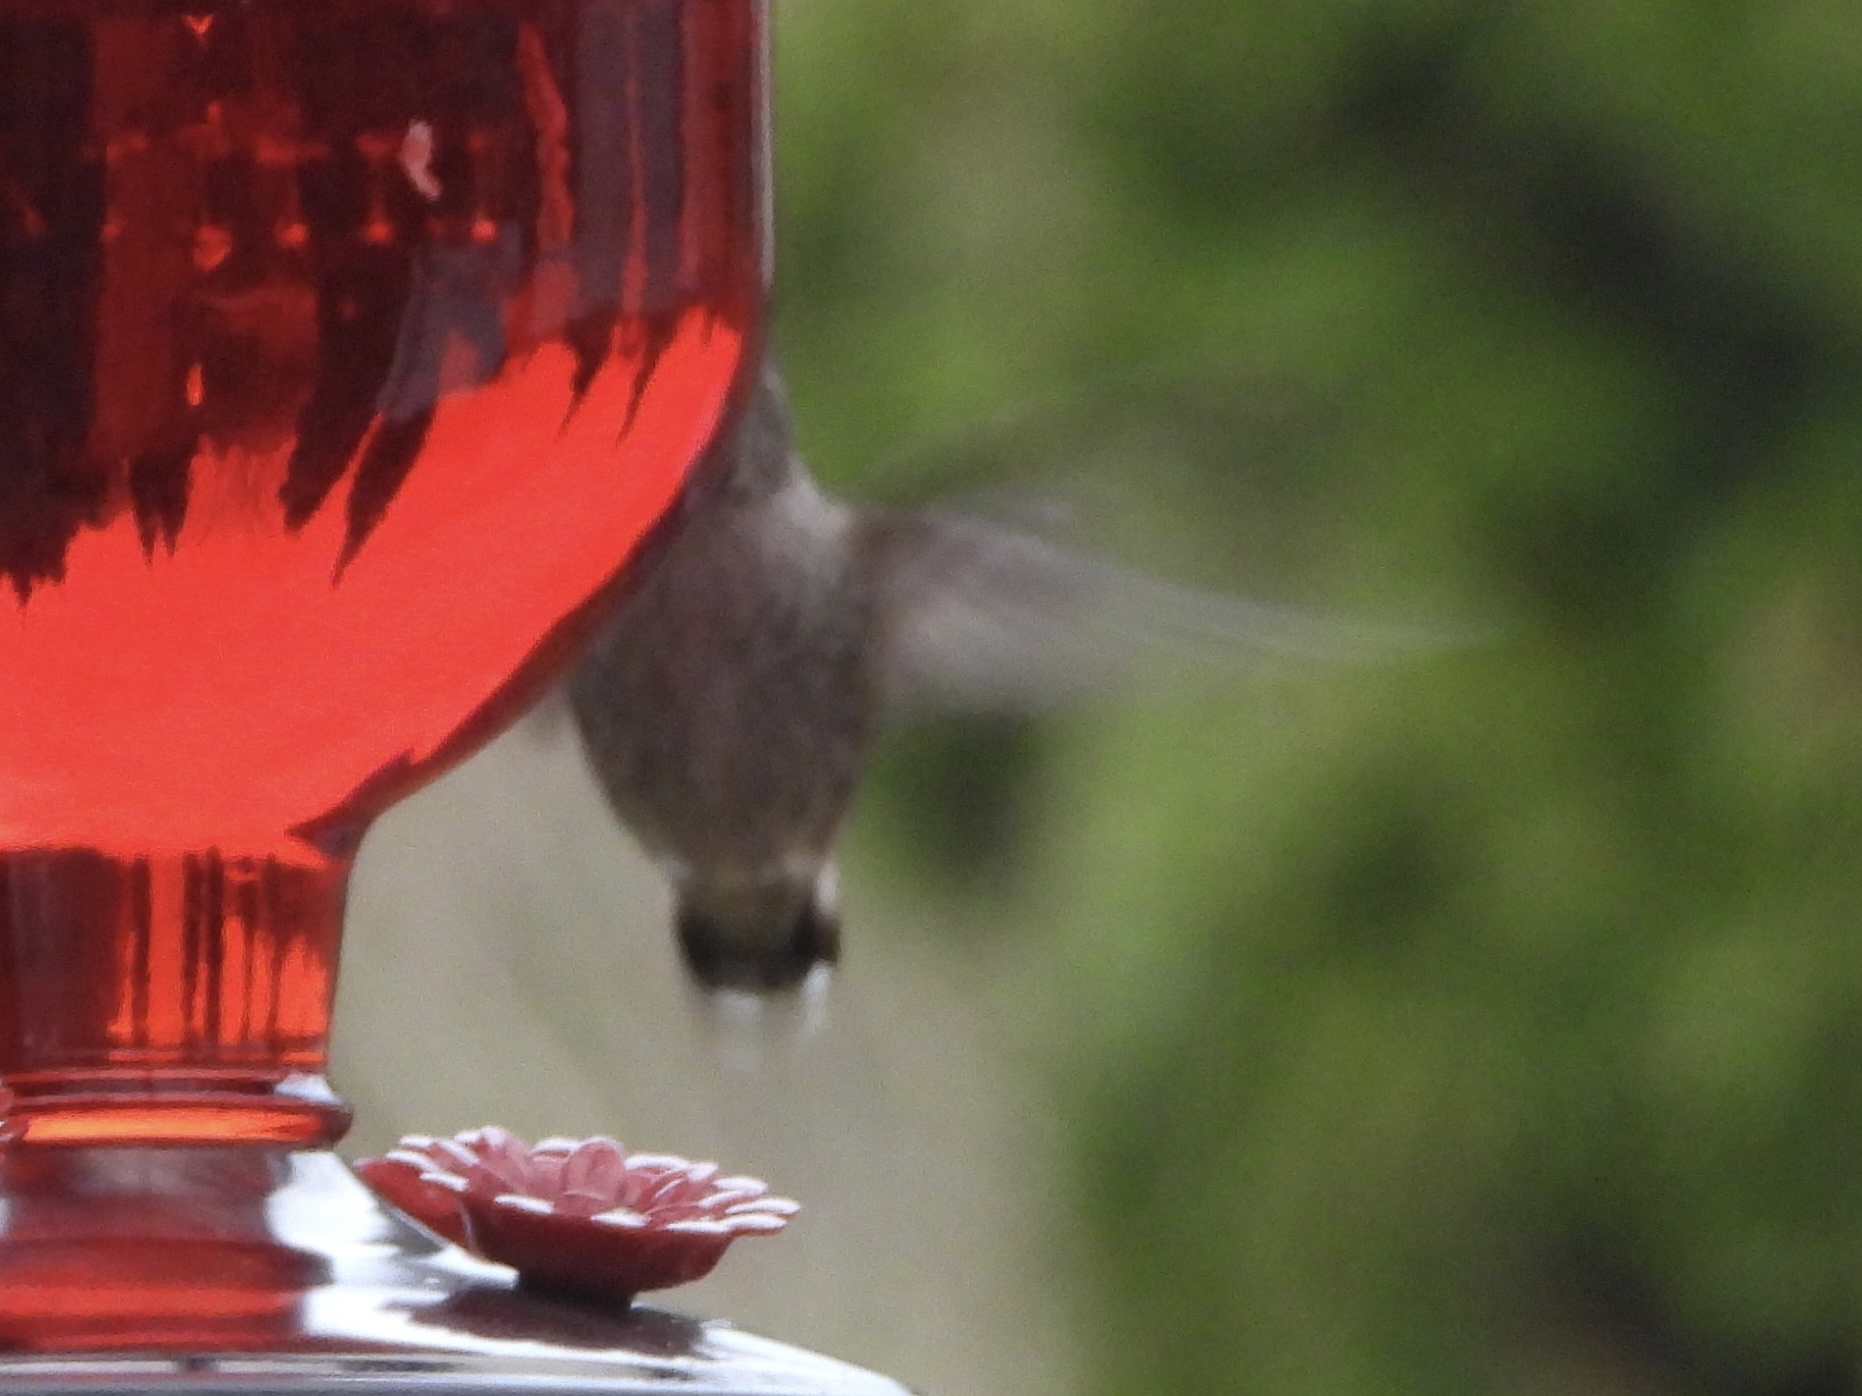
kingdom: Animalia
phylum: Chordata
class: Aves
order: Apodiformes
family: Trochilidae
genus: Calypte
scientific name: Calypte anna
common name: Anna's hummingbird
